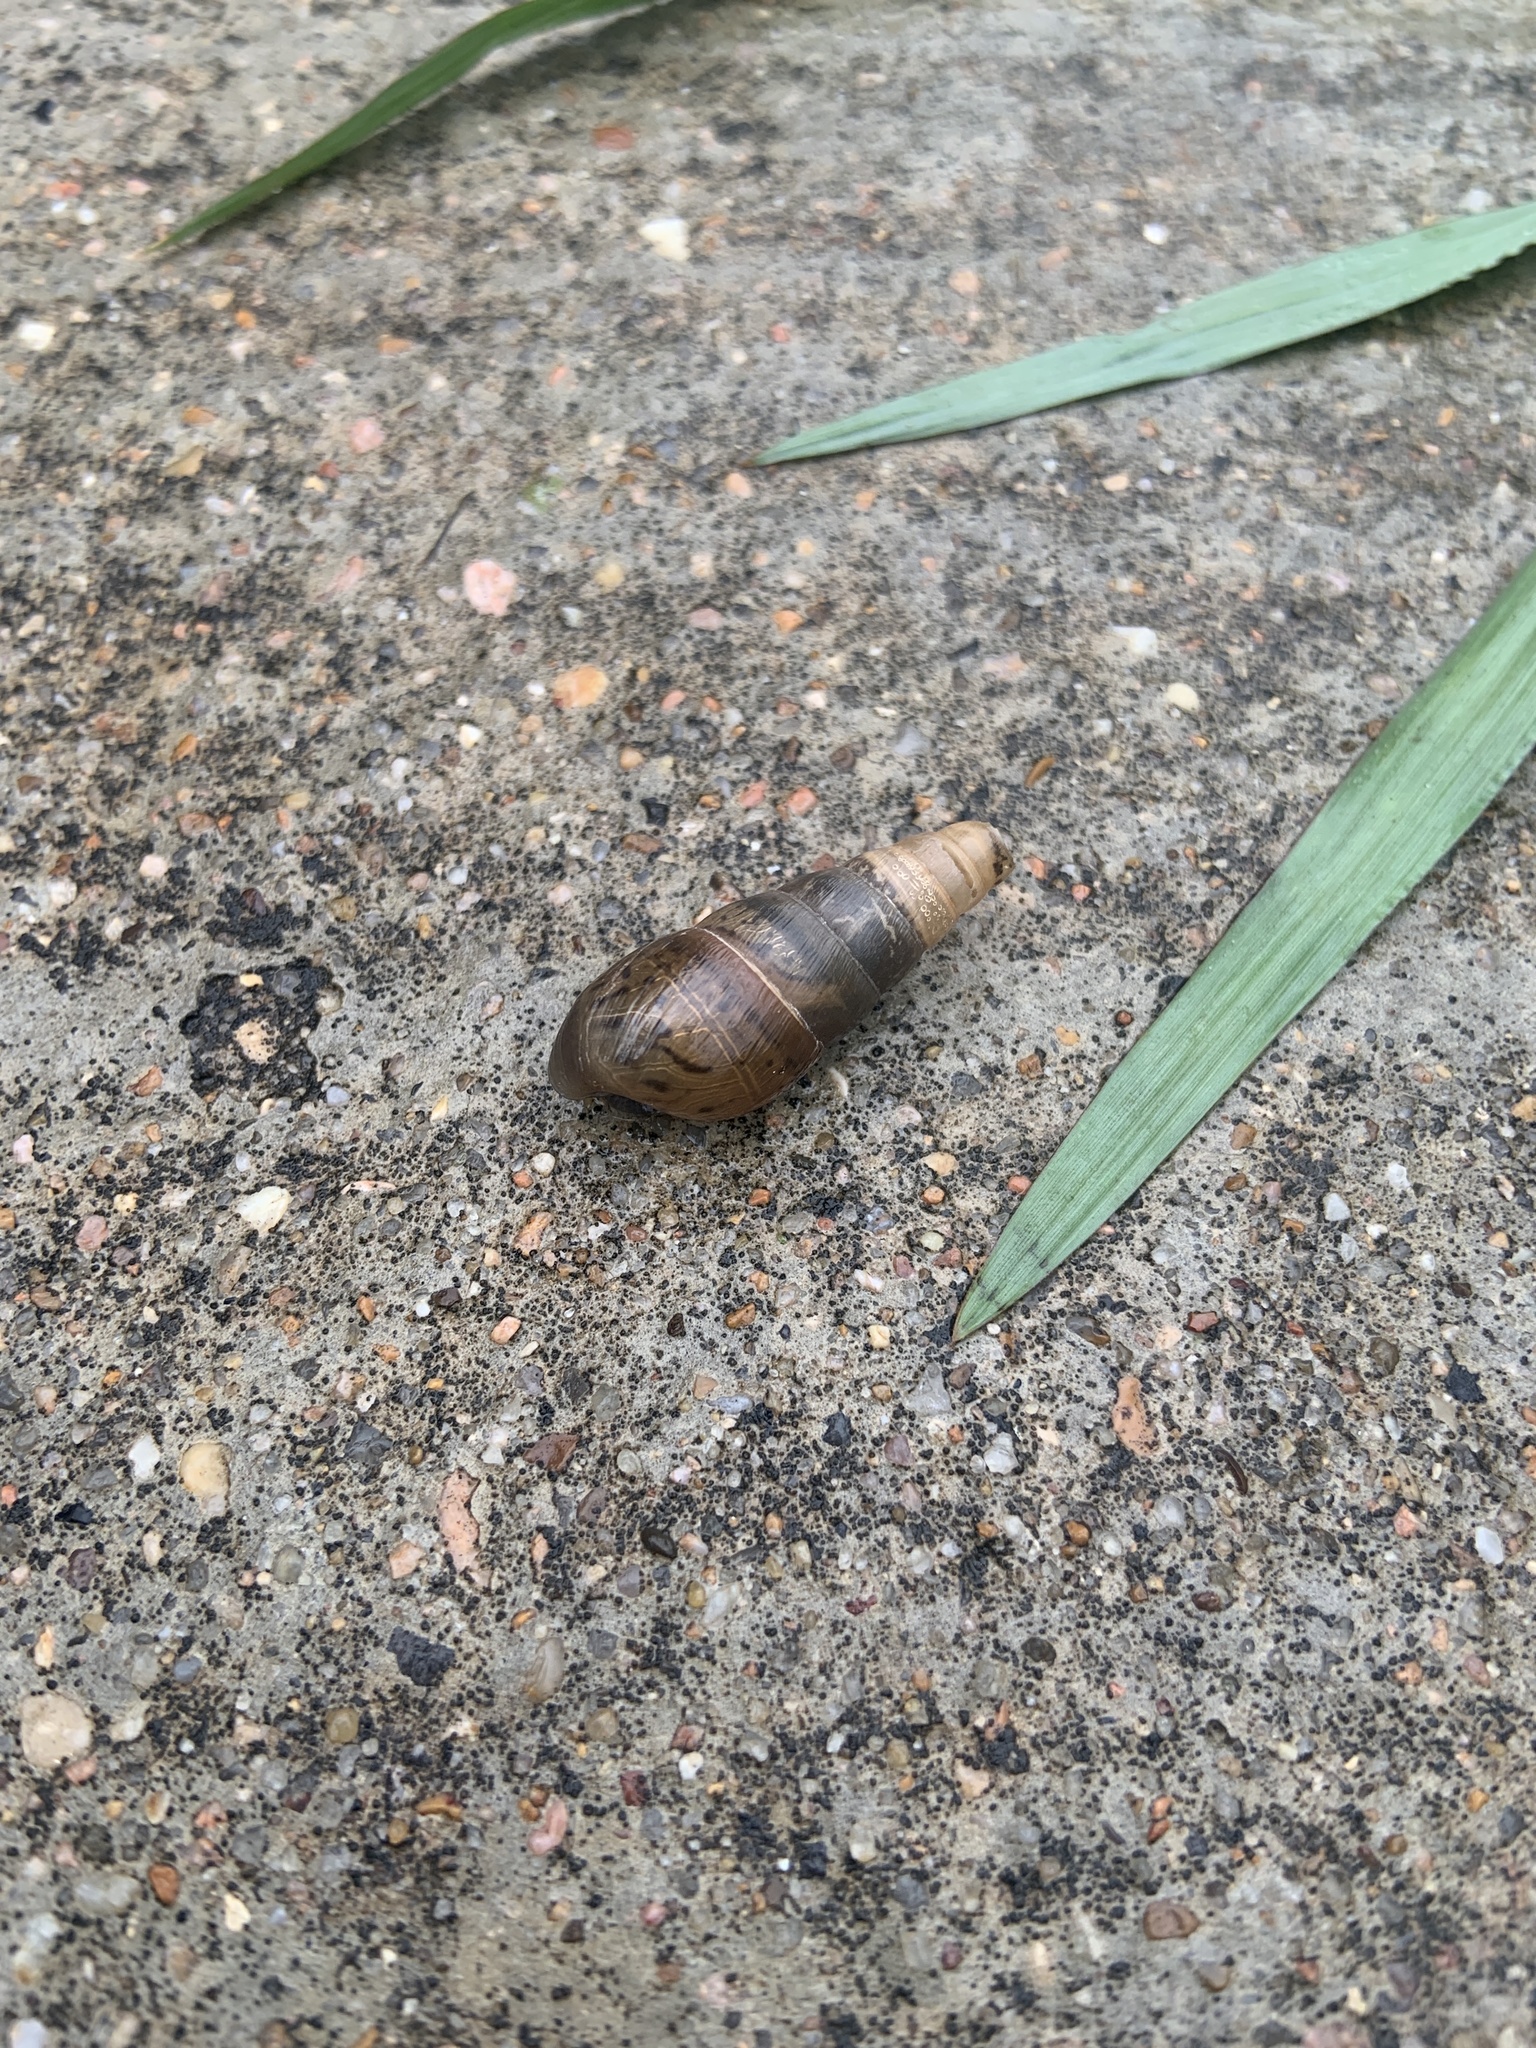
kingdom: Animalia
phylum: Mollusca
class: Gastropoda
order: Stylommatophora
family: Achatinidae
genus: Rumina
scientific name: Rumina decollata
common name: Decollate snail
